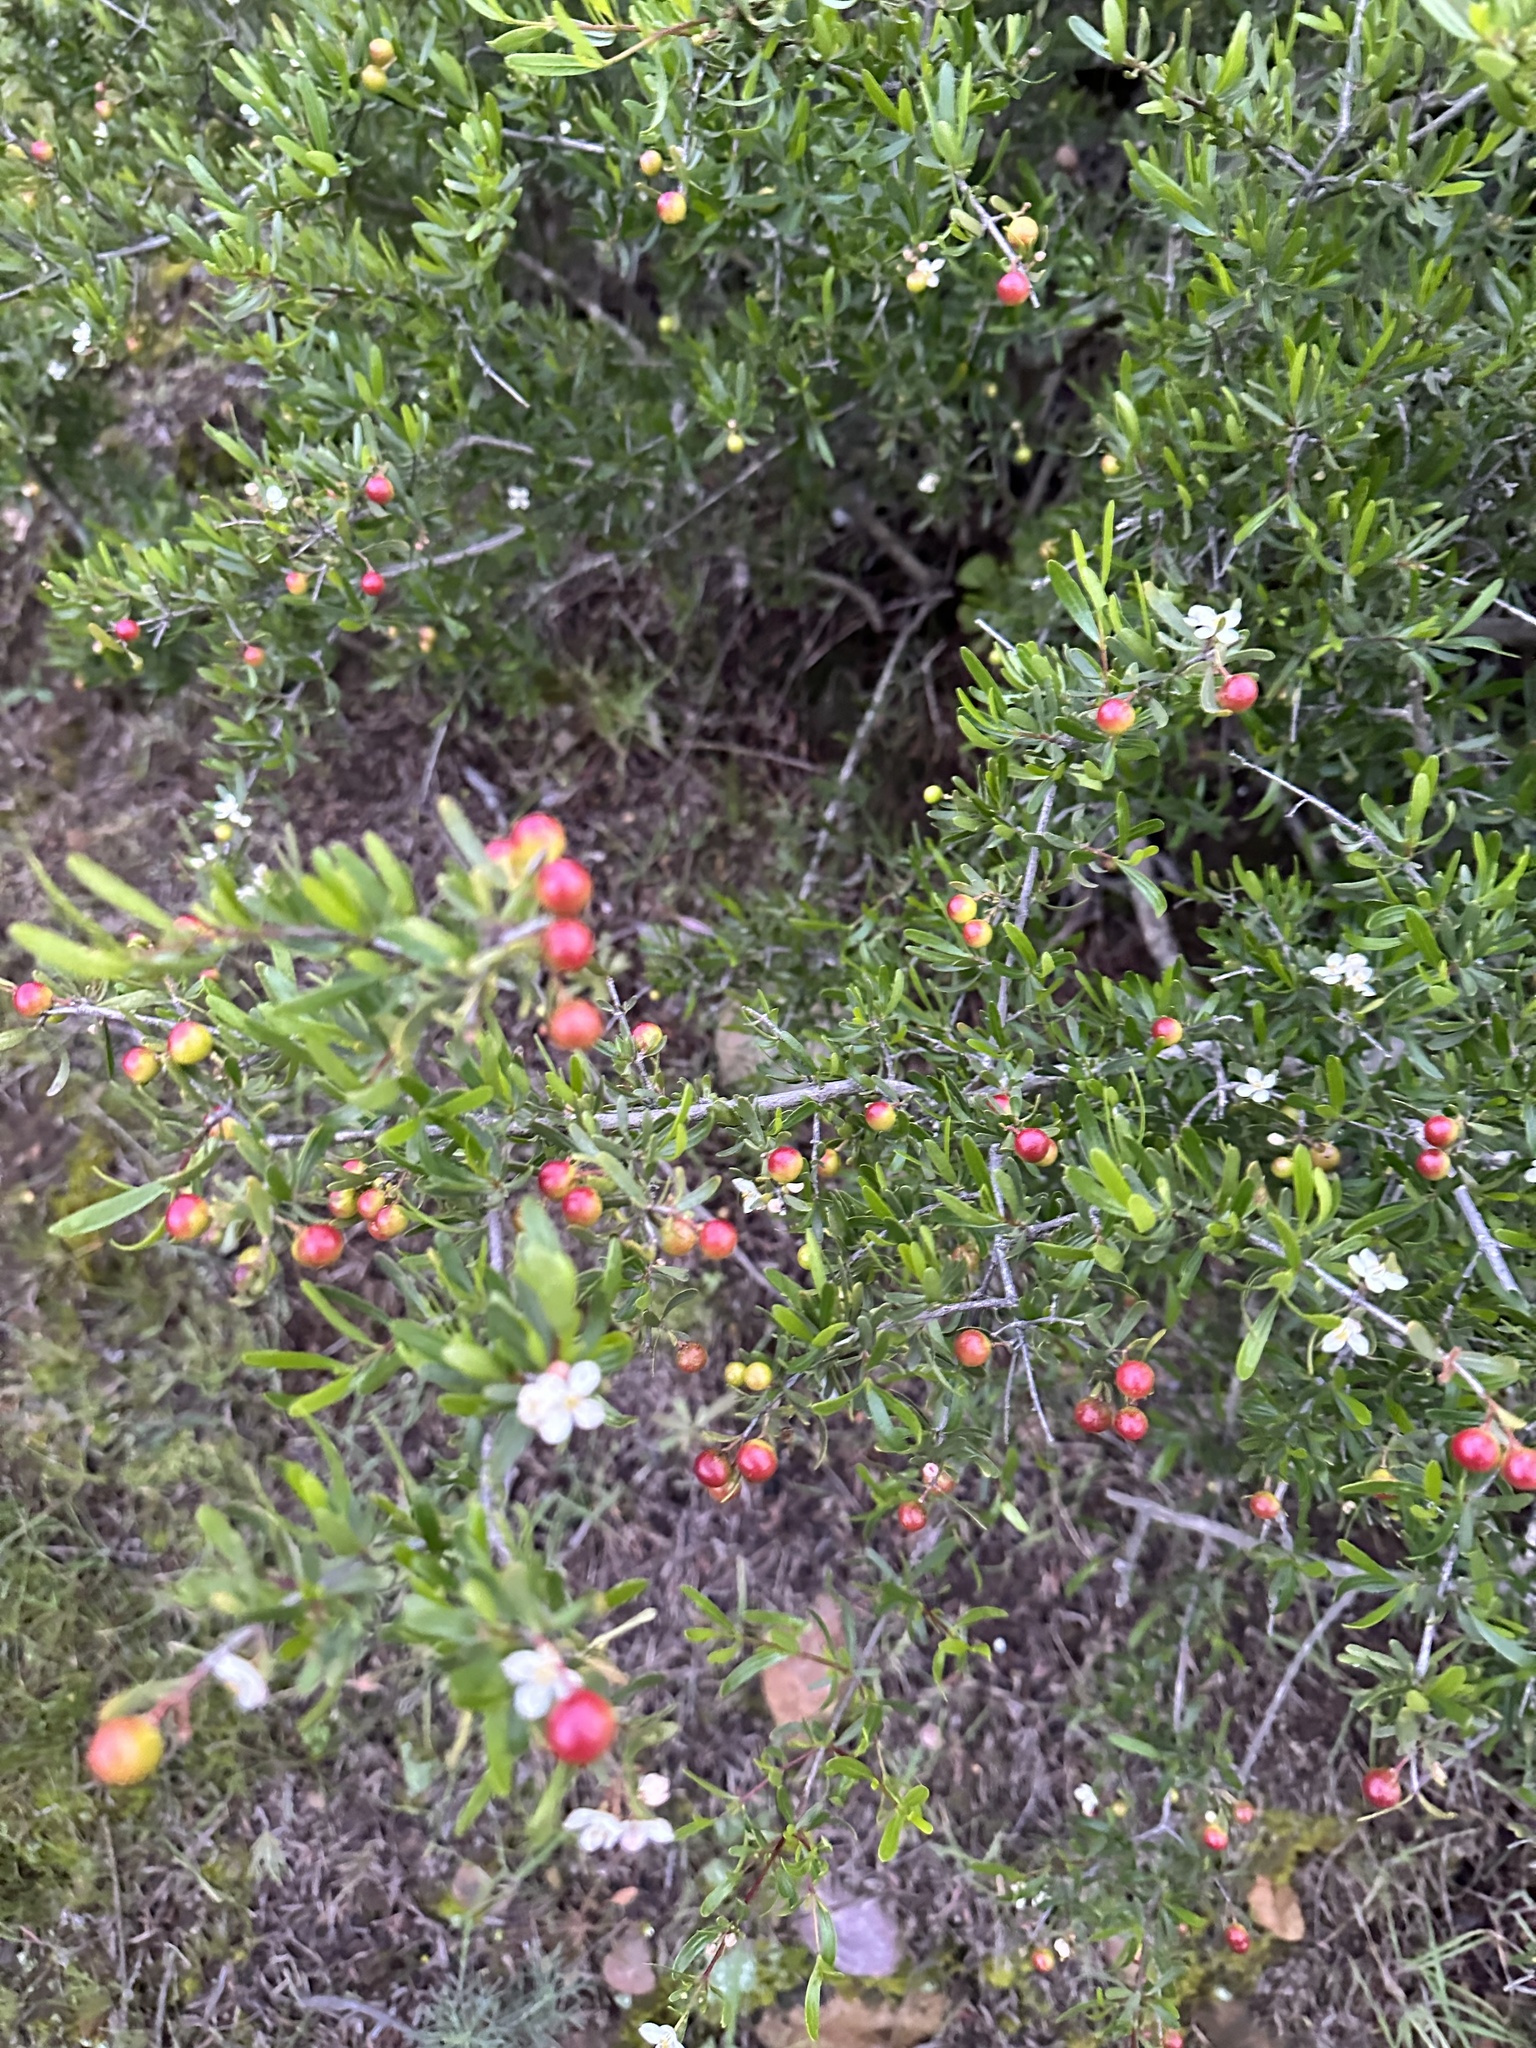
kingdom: Plantae
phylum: Tracheophyta
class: Magnoliopsida
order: Sapindales
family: Rutaceae
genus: Cneoridium
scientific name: Cneoridium dumosum
